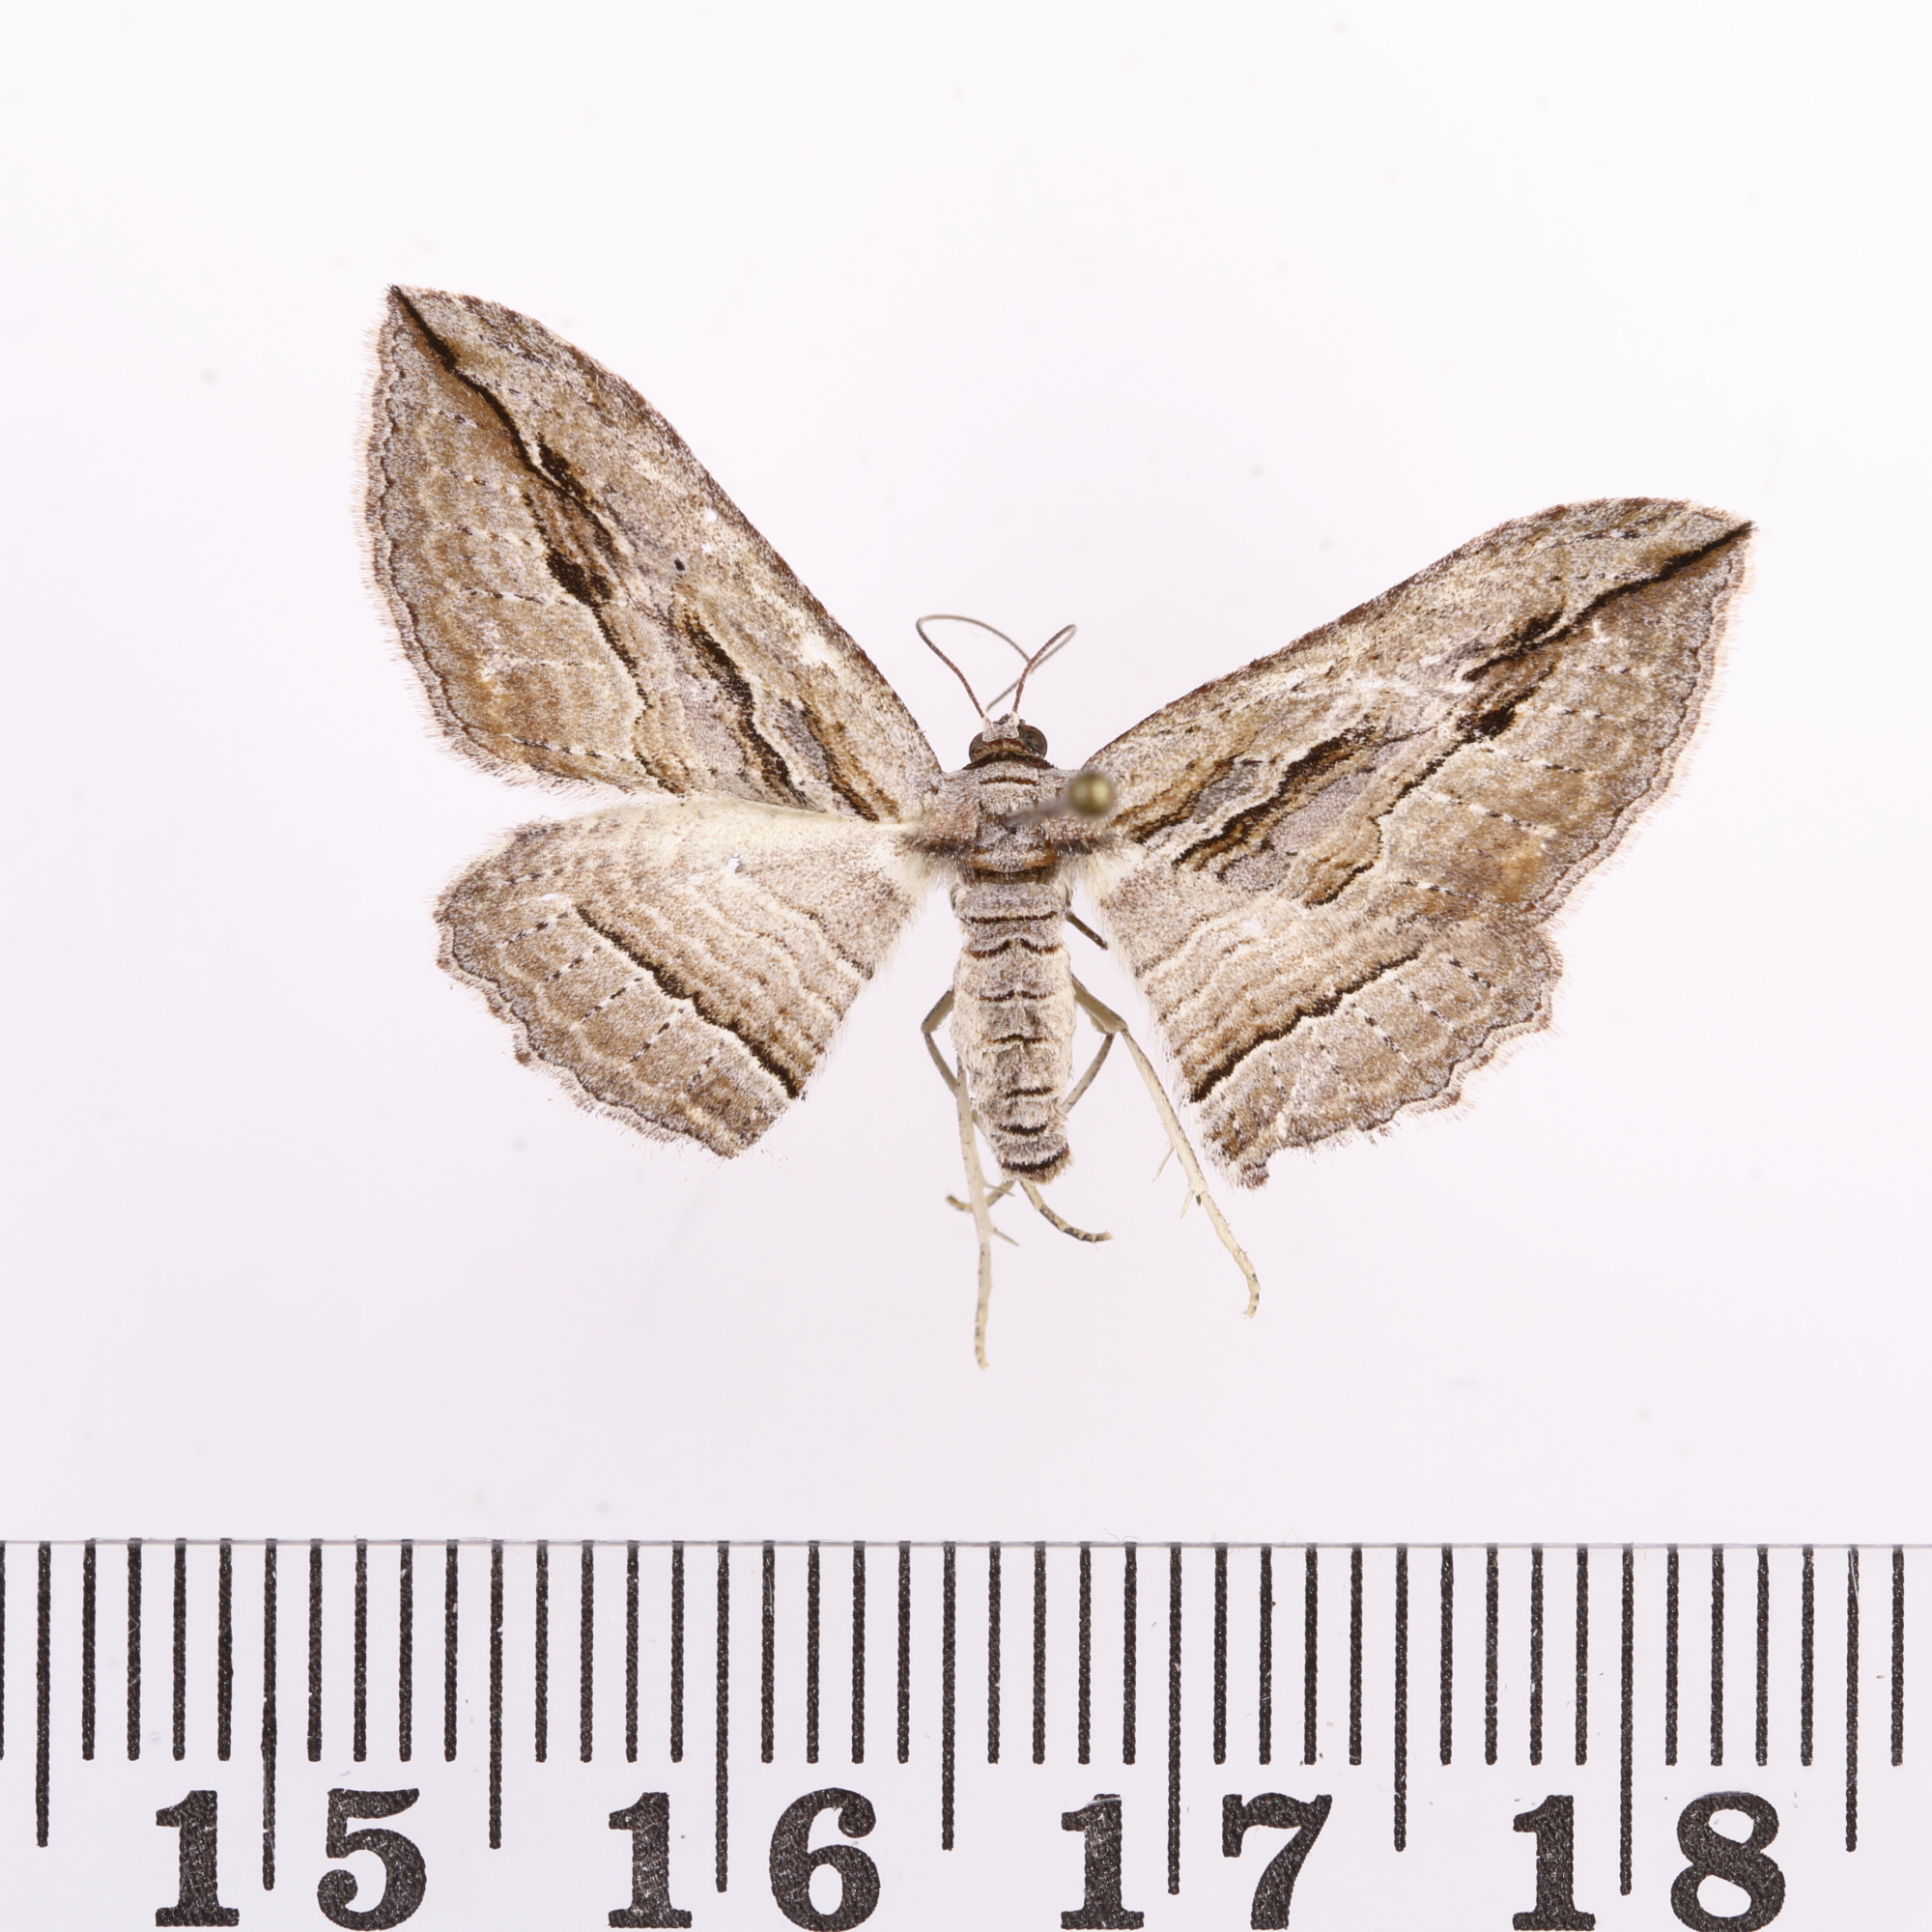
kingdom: Animalia
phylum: Arthropoda
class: Insecta
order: Lepidoptera
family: Geometridae
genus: Austrocidaria
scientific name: Austrocidaria gobiata
